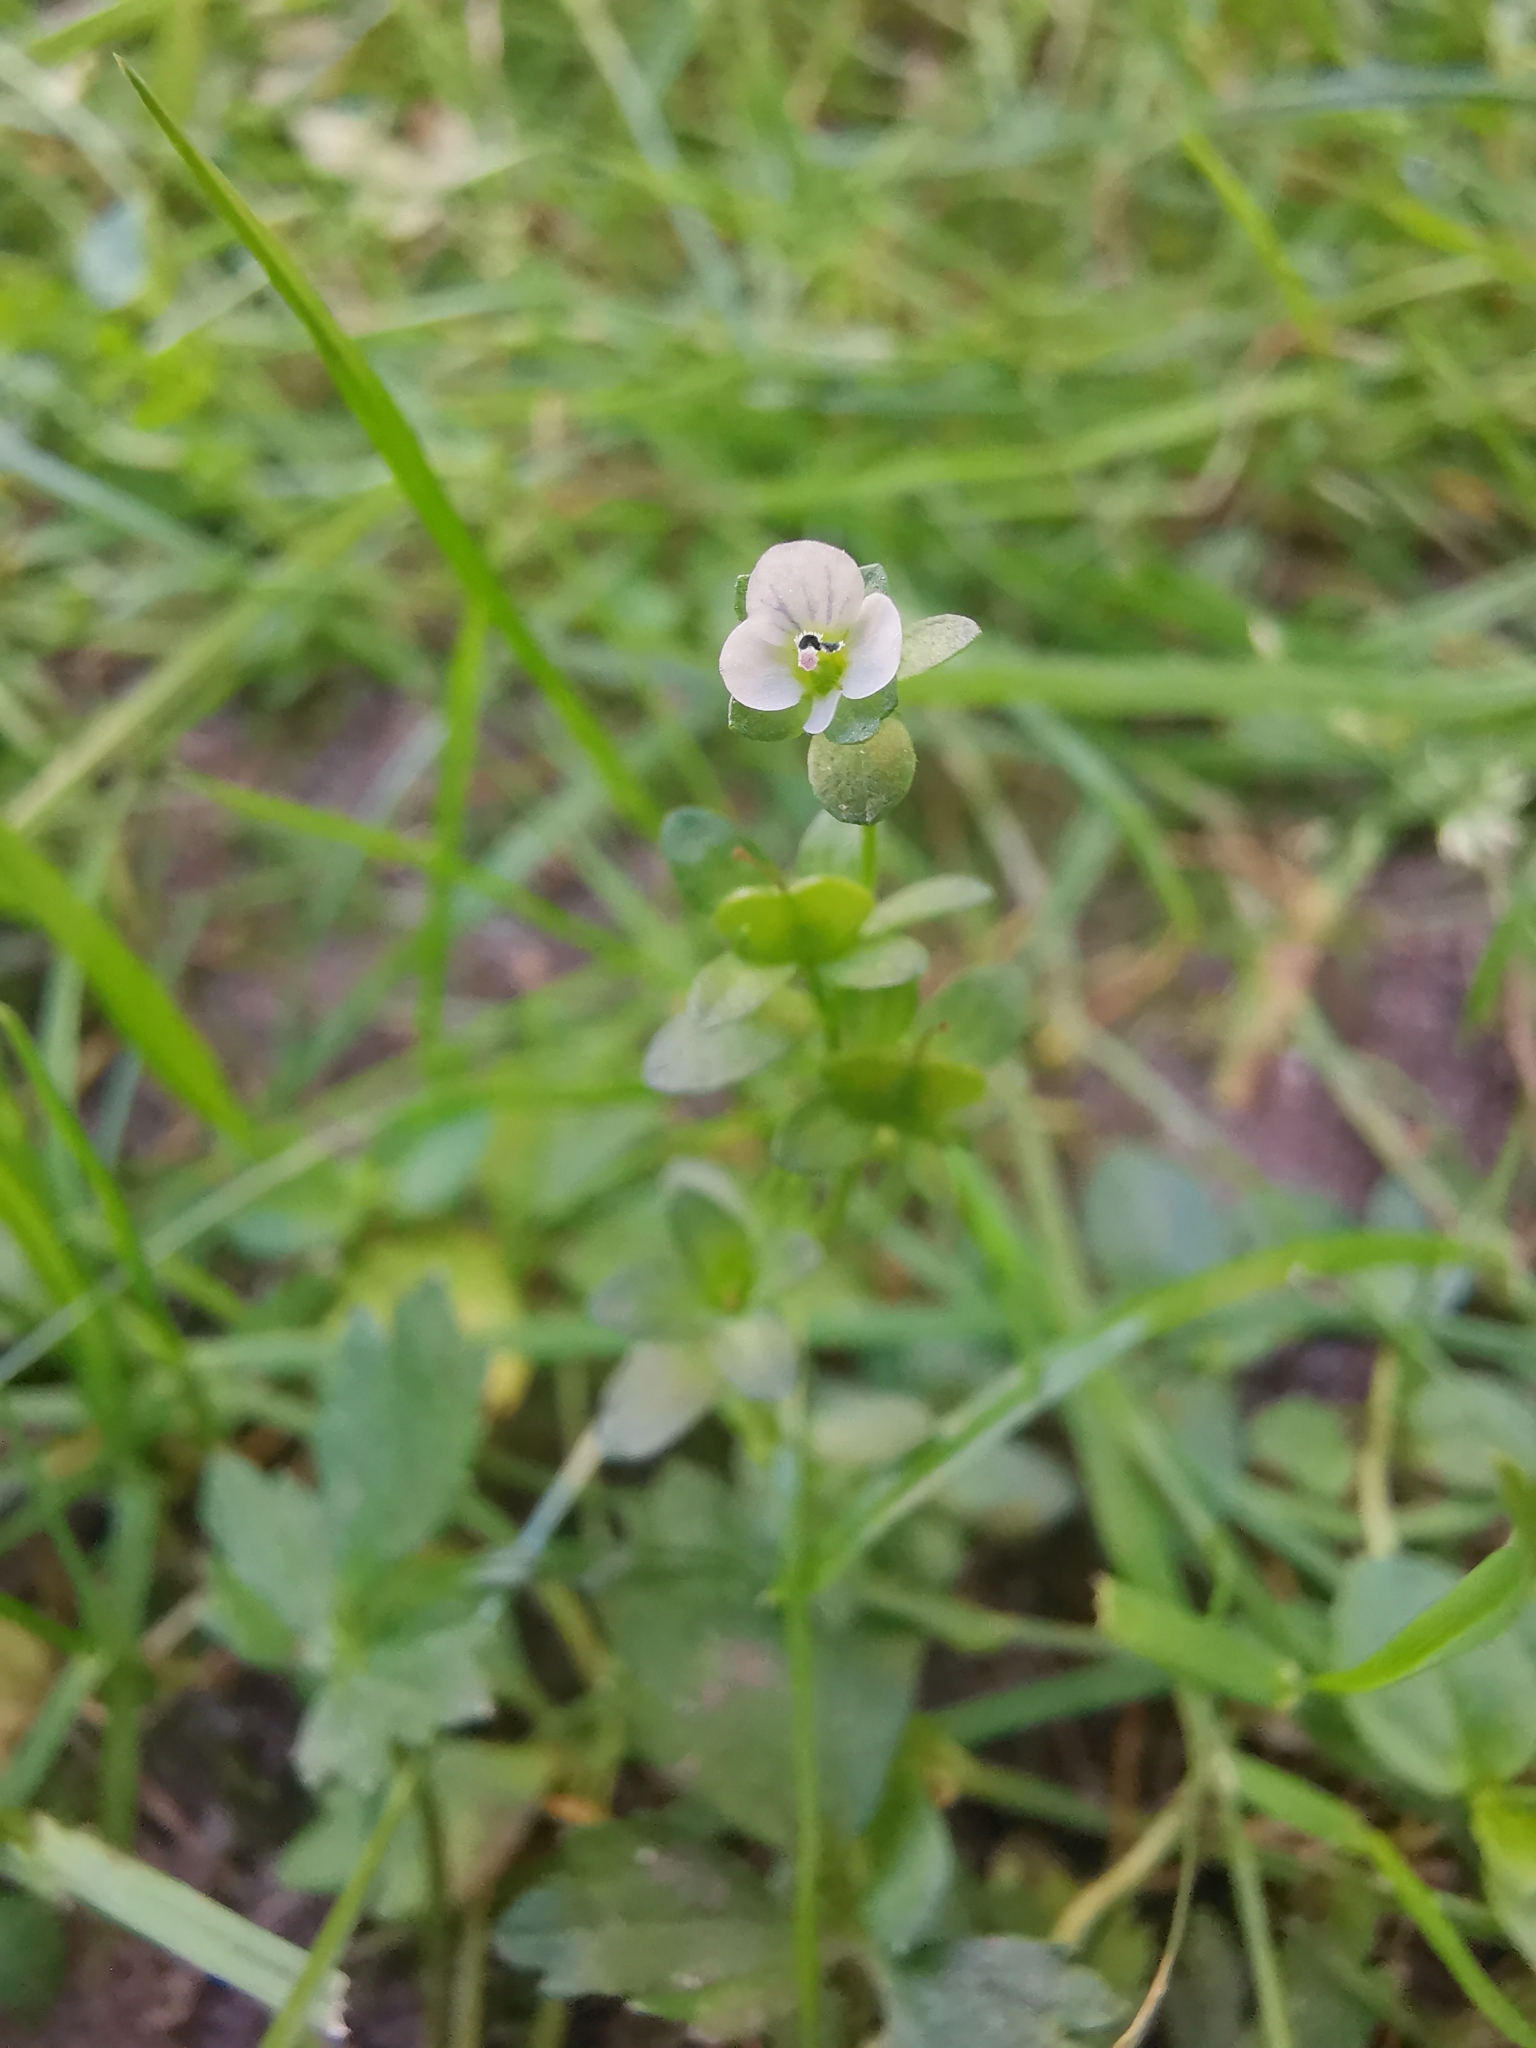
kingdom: Plantae
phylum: Tracheophyta
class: Magnoliopsida
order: Lamiales
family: Plantaginaceae
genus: Veronica
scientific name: Veronica serpyllifolia
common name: Thyme-leaved speedwell
